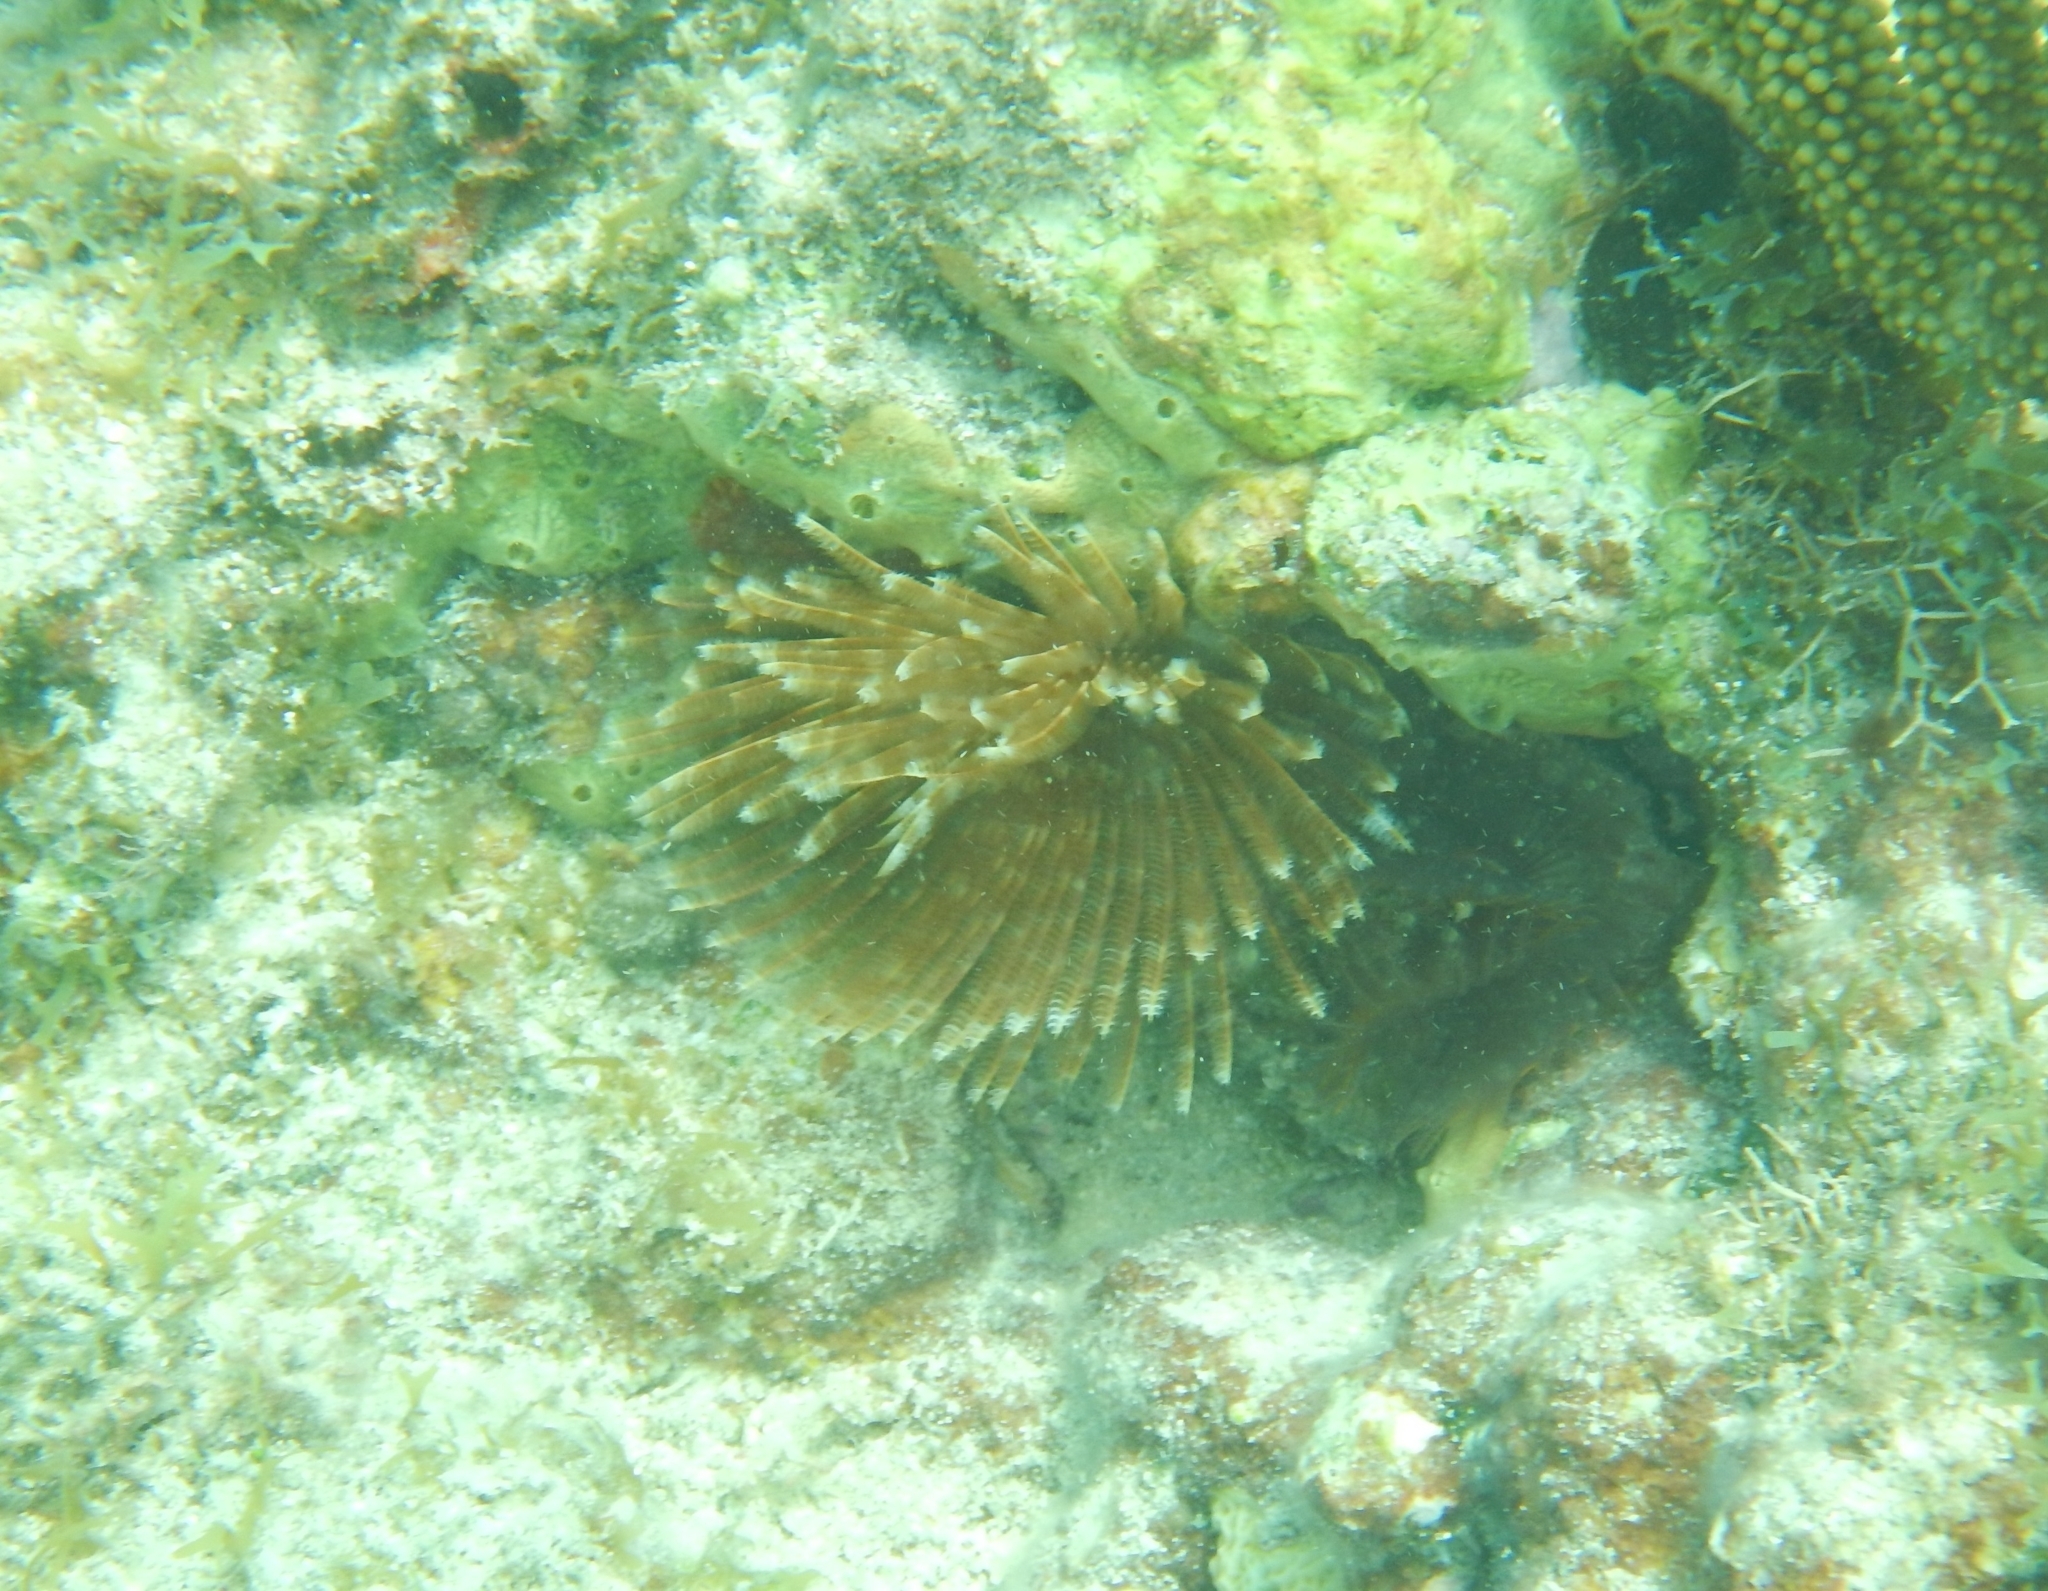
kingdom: Animalia
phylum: Annelida
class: Polychaeta
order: Sabellida
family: Sabellidae
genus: Sabellastarte
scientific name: Sabellastarte magnifica
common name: Giant feather-duster worm
